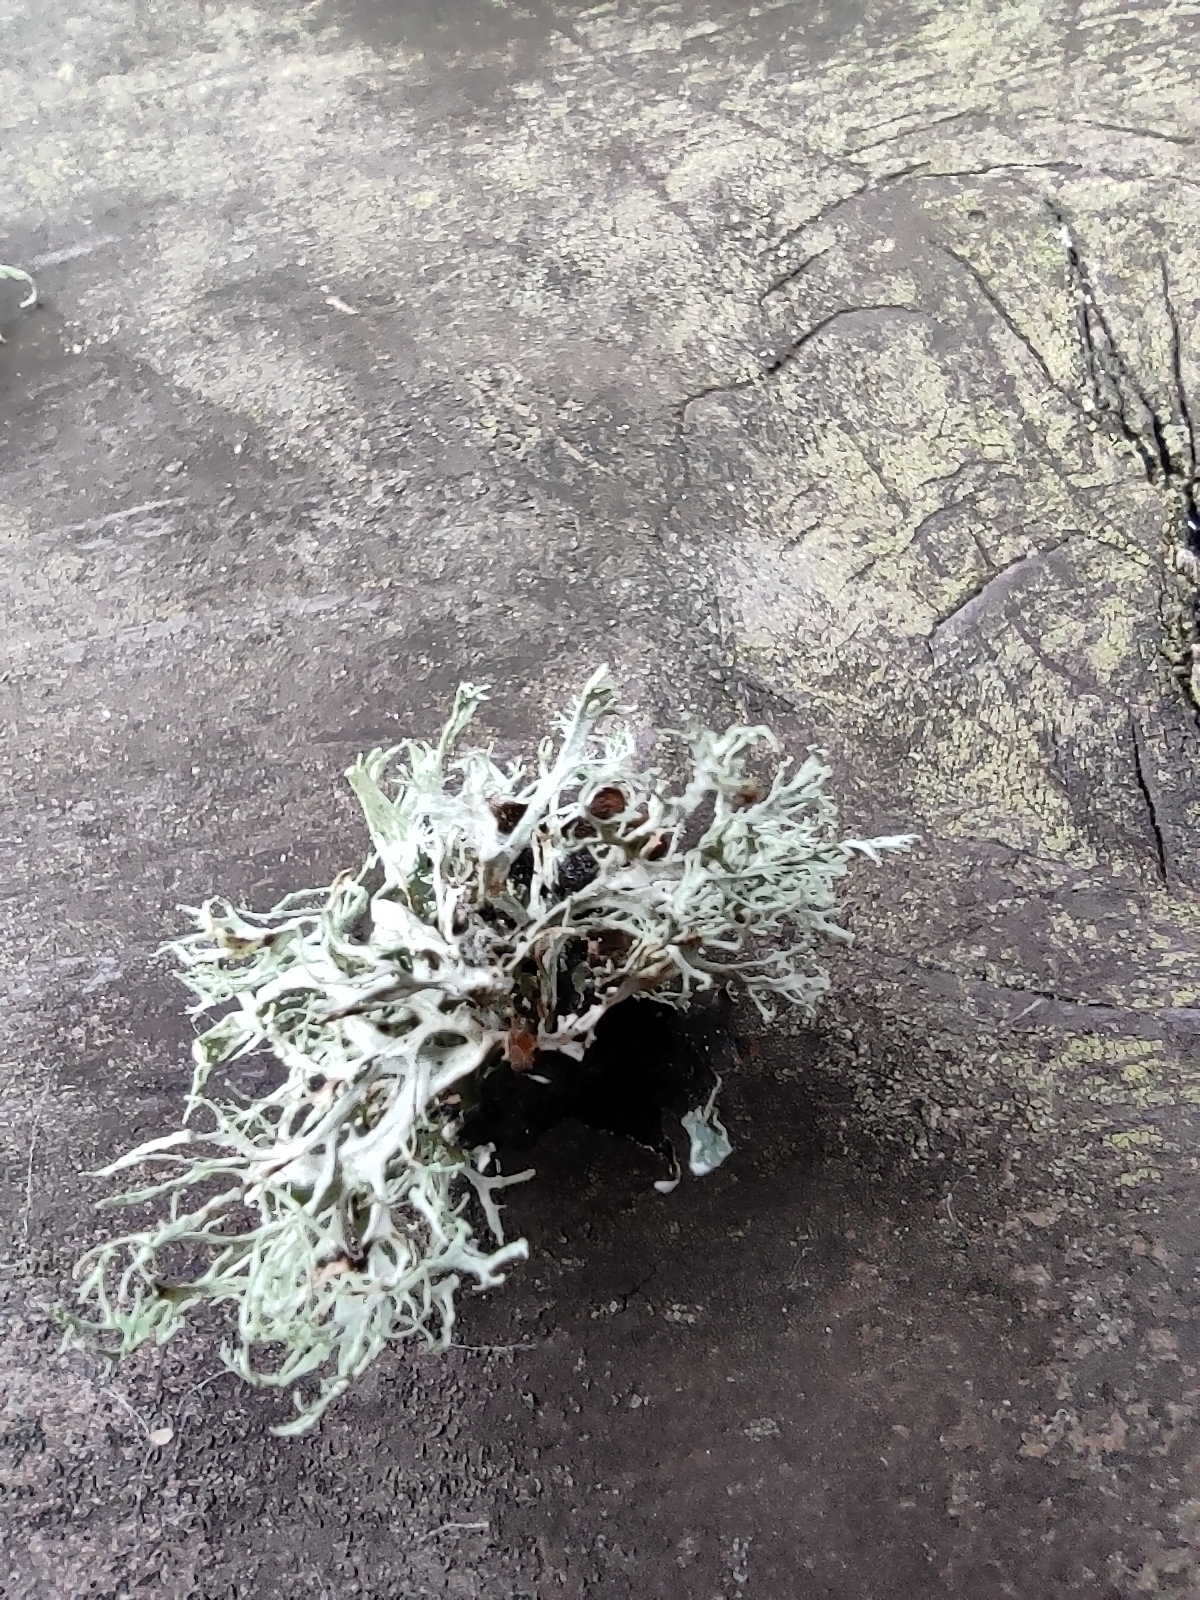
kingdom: Fungi
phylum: Ascomycota
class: Lecanoromycetes
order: Lecanorales
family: Ramalinaceae
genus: Ramalina
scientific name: Ramalina farinacea
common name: Farinose cartilage lichen
